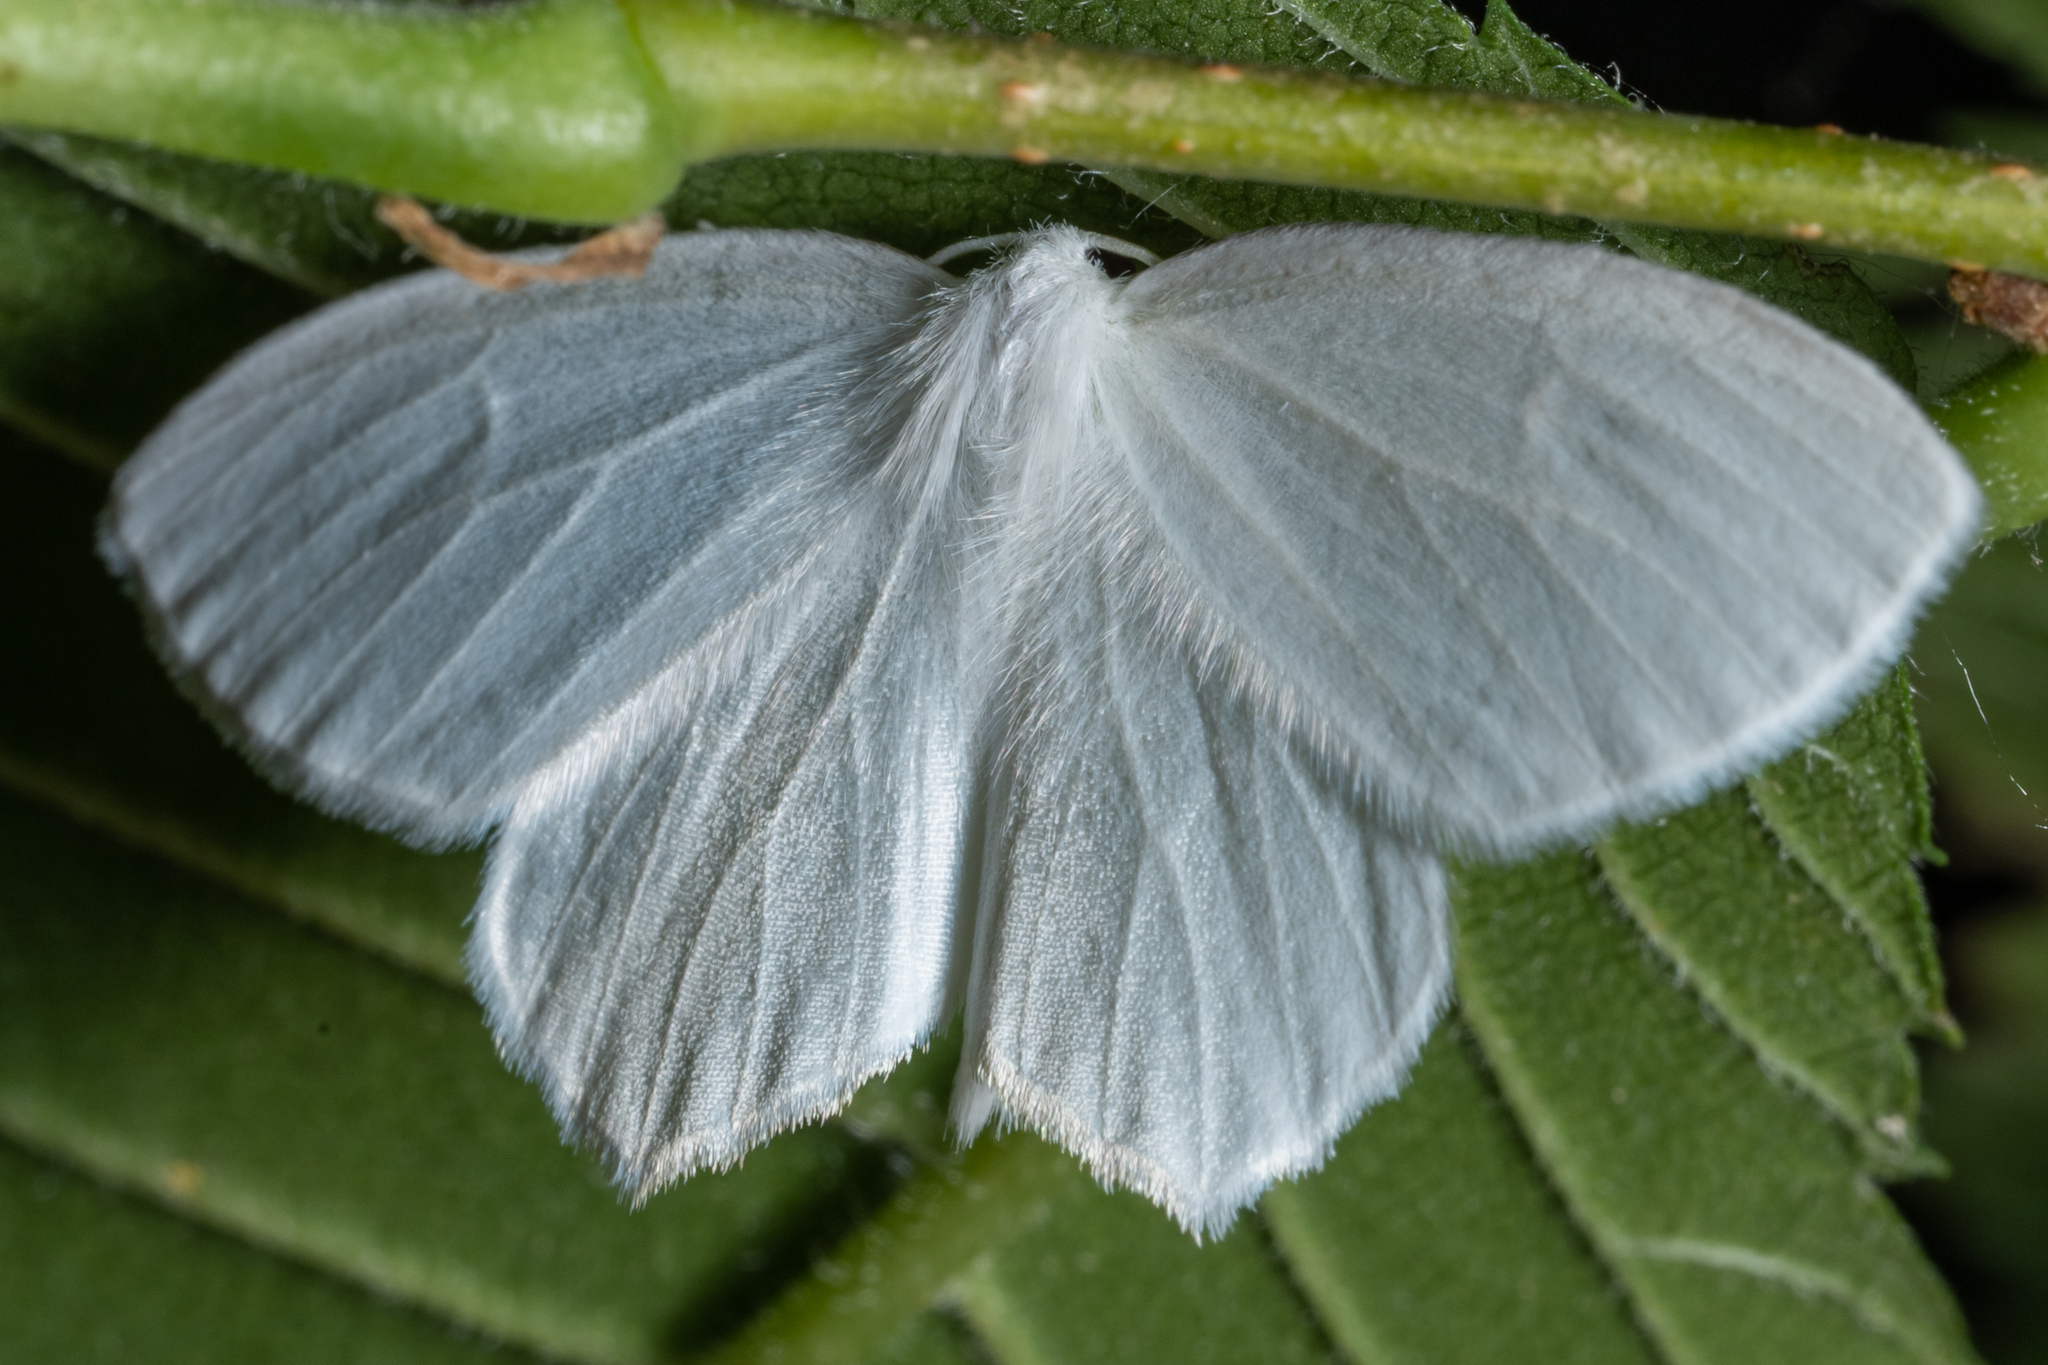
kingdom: Animalia
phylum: Arthropoda
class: Insecta
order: Lepidoptera
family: Geometridae
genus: Eugonobapta
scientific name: Eugonobapta nivosaria
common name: Snowy geometer
